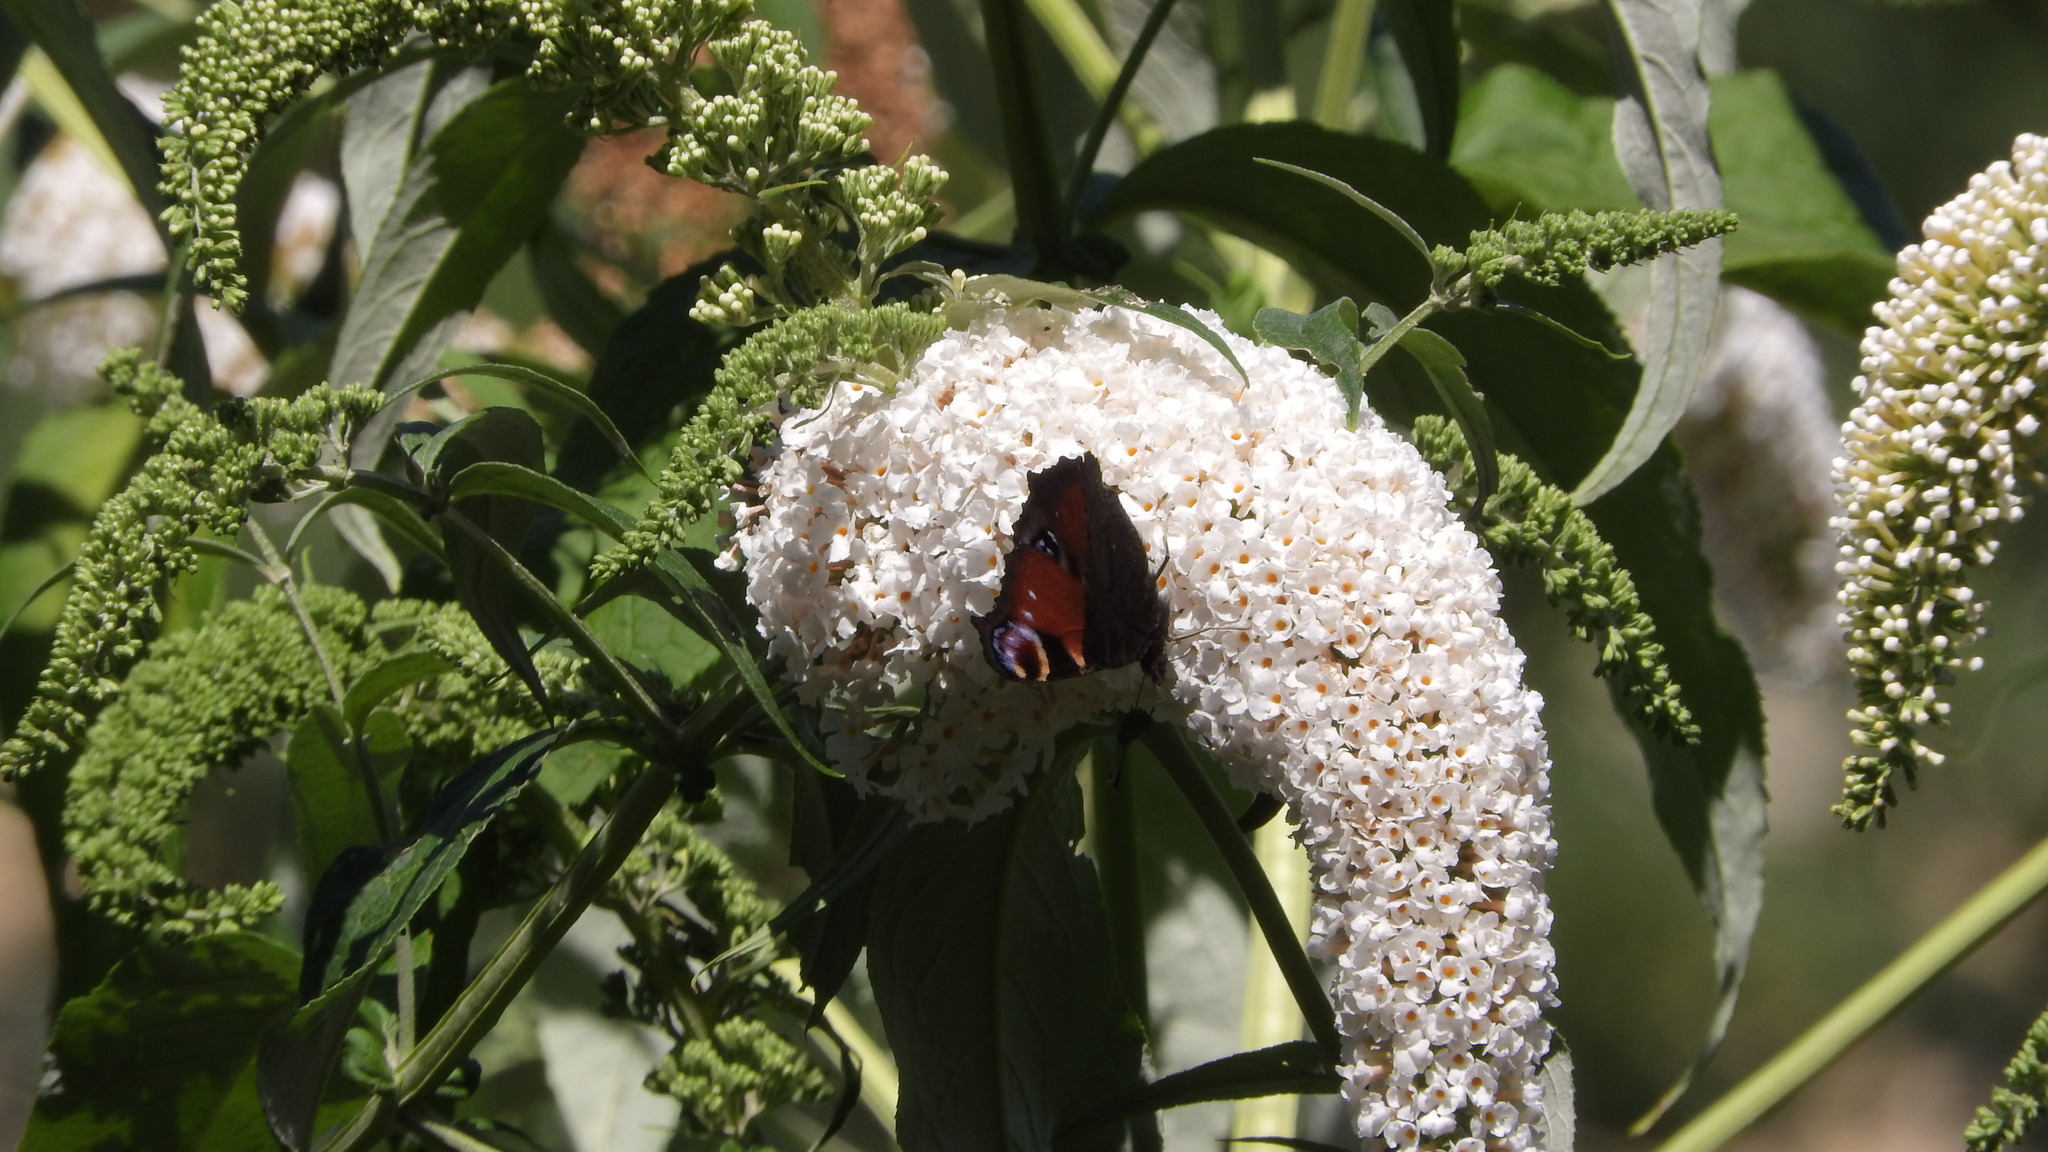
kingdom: Animalia
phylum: Arthropoda
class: Insecta
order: Lepidoptera
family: Nymphalidae
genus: Aglais
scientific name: Aglais io
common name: Peacock
